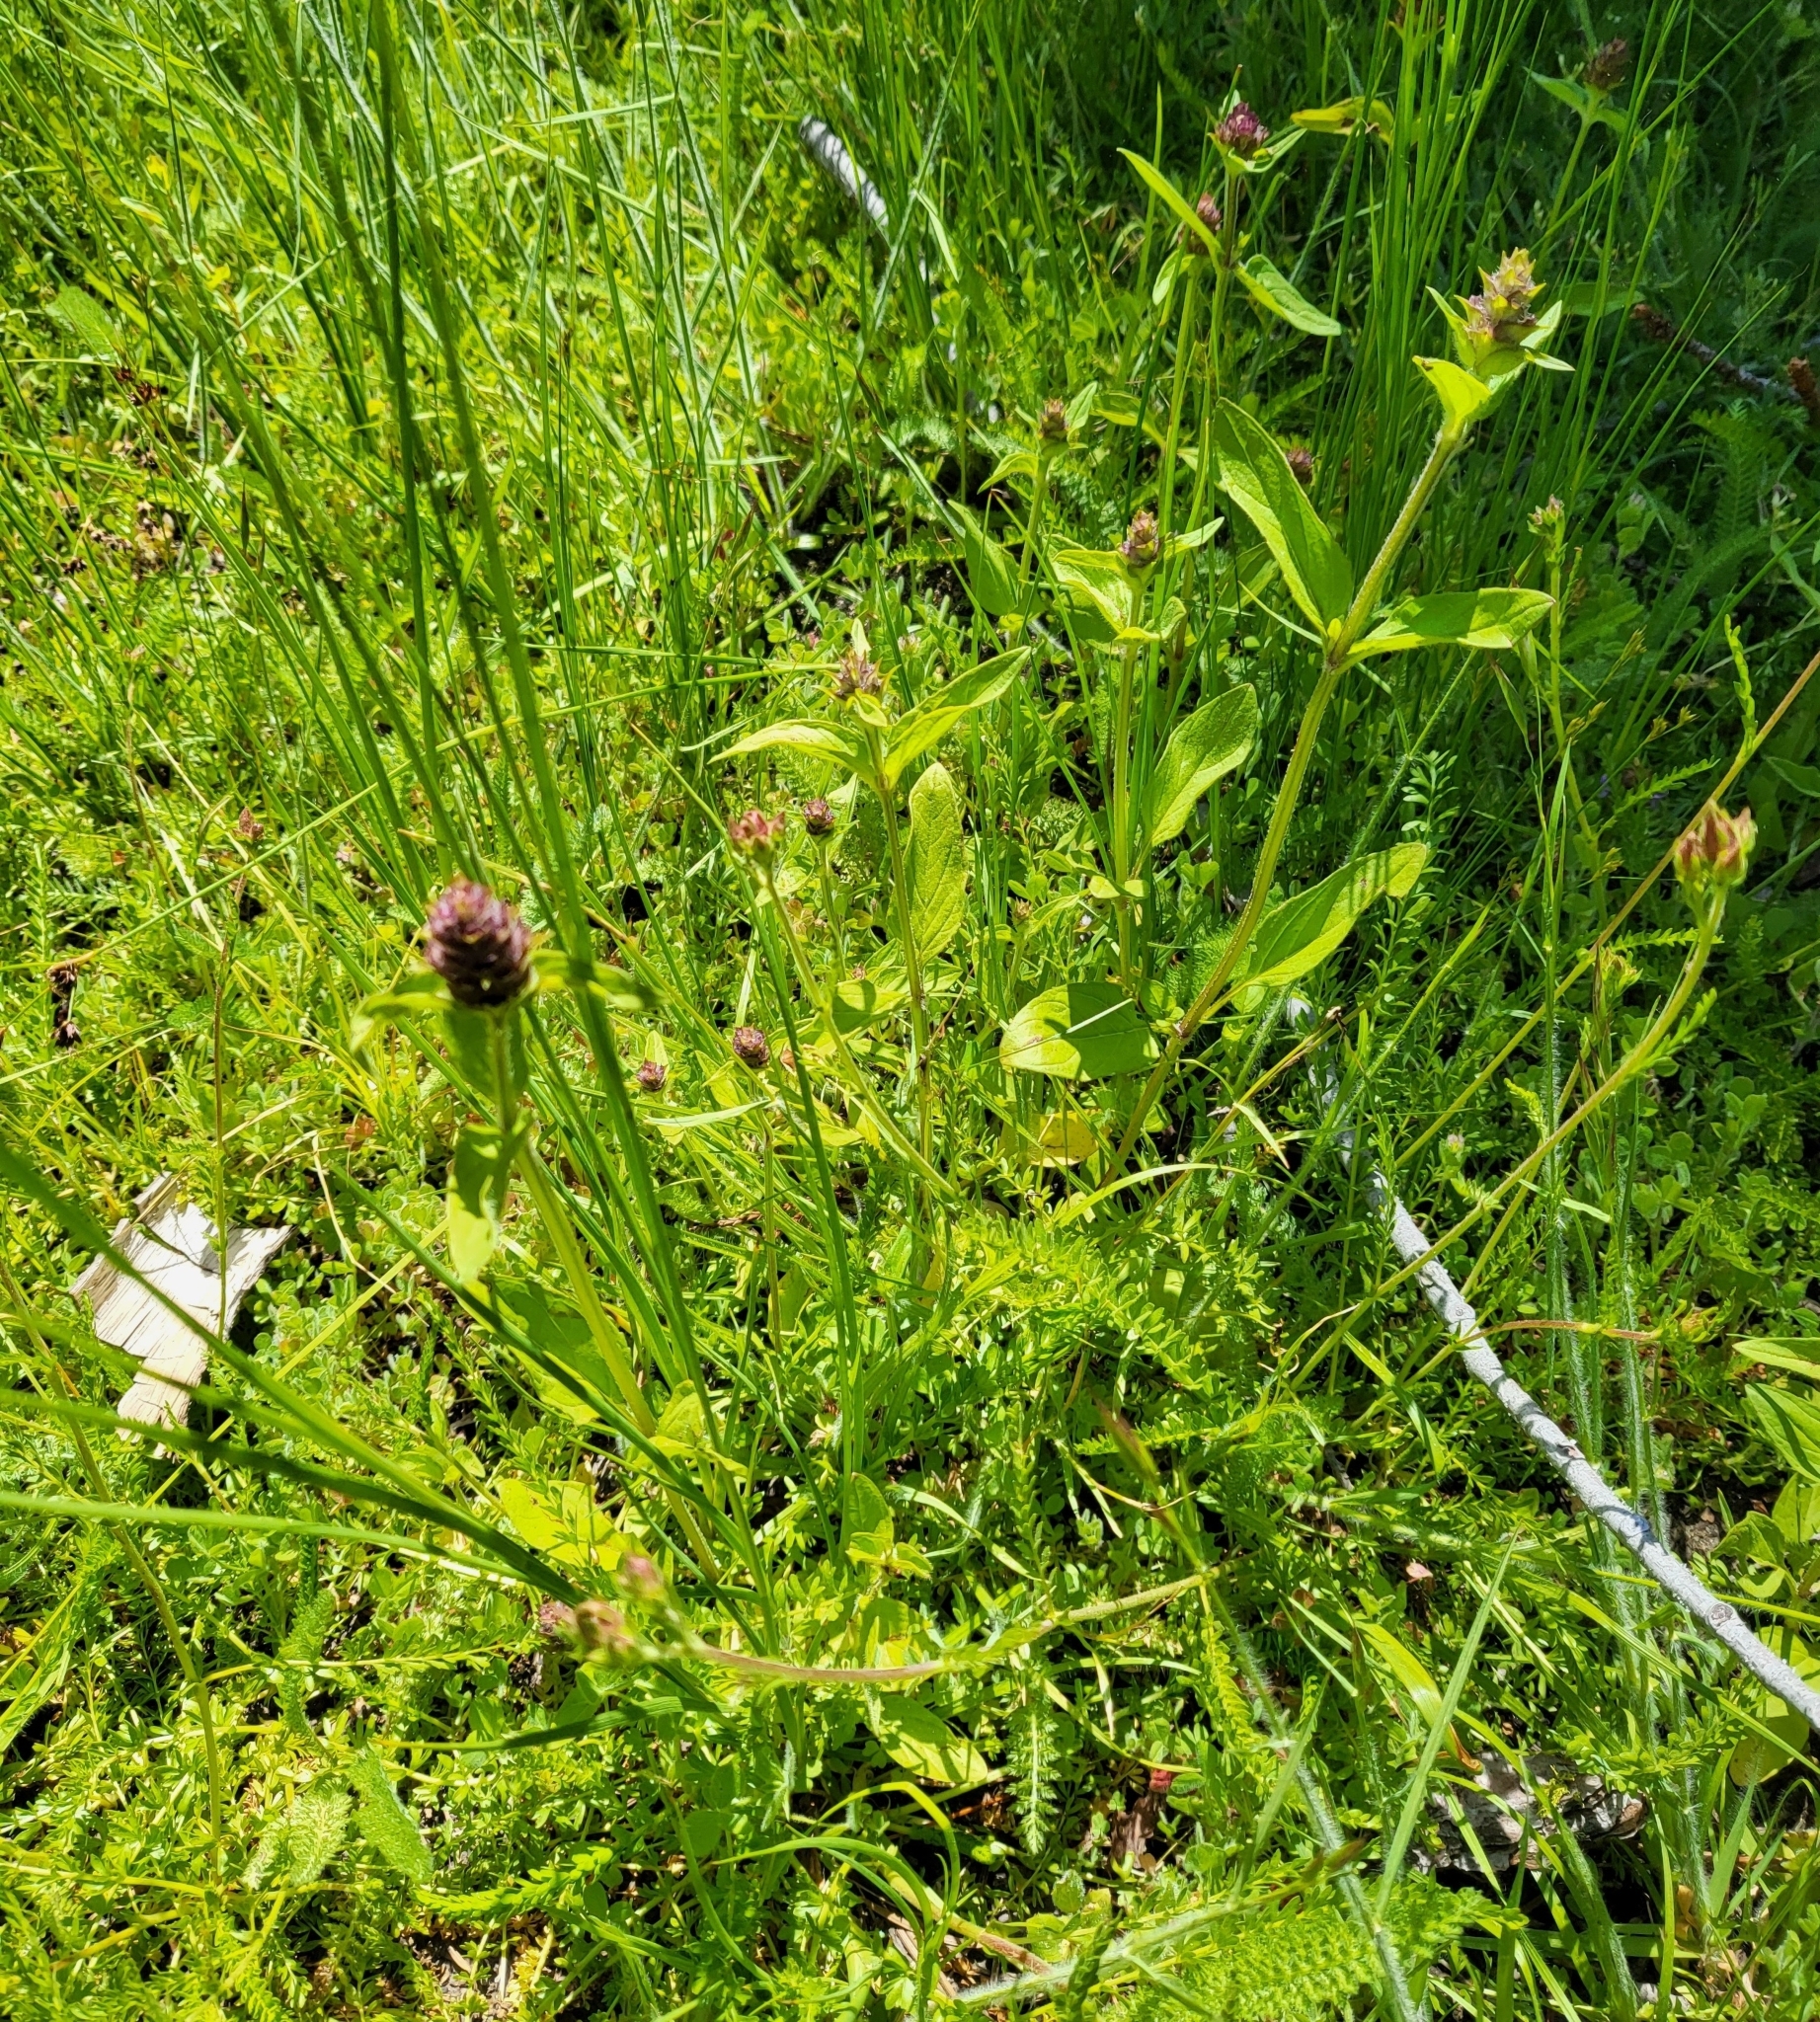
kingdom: Plantae
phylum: Tracheophyta
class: Magnoliopsida
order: Lamiales
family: Lamiaceae
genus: Prunella
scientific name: Prunella vulgaris
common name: Heal-all
